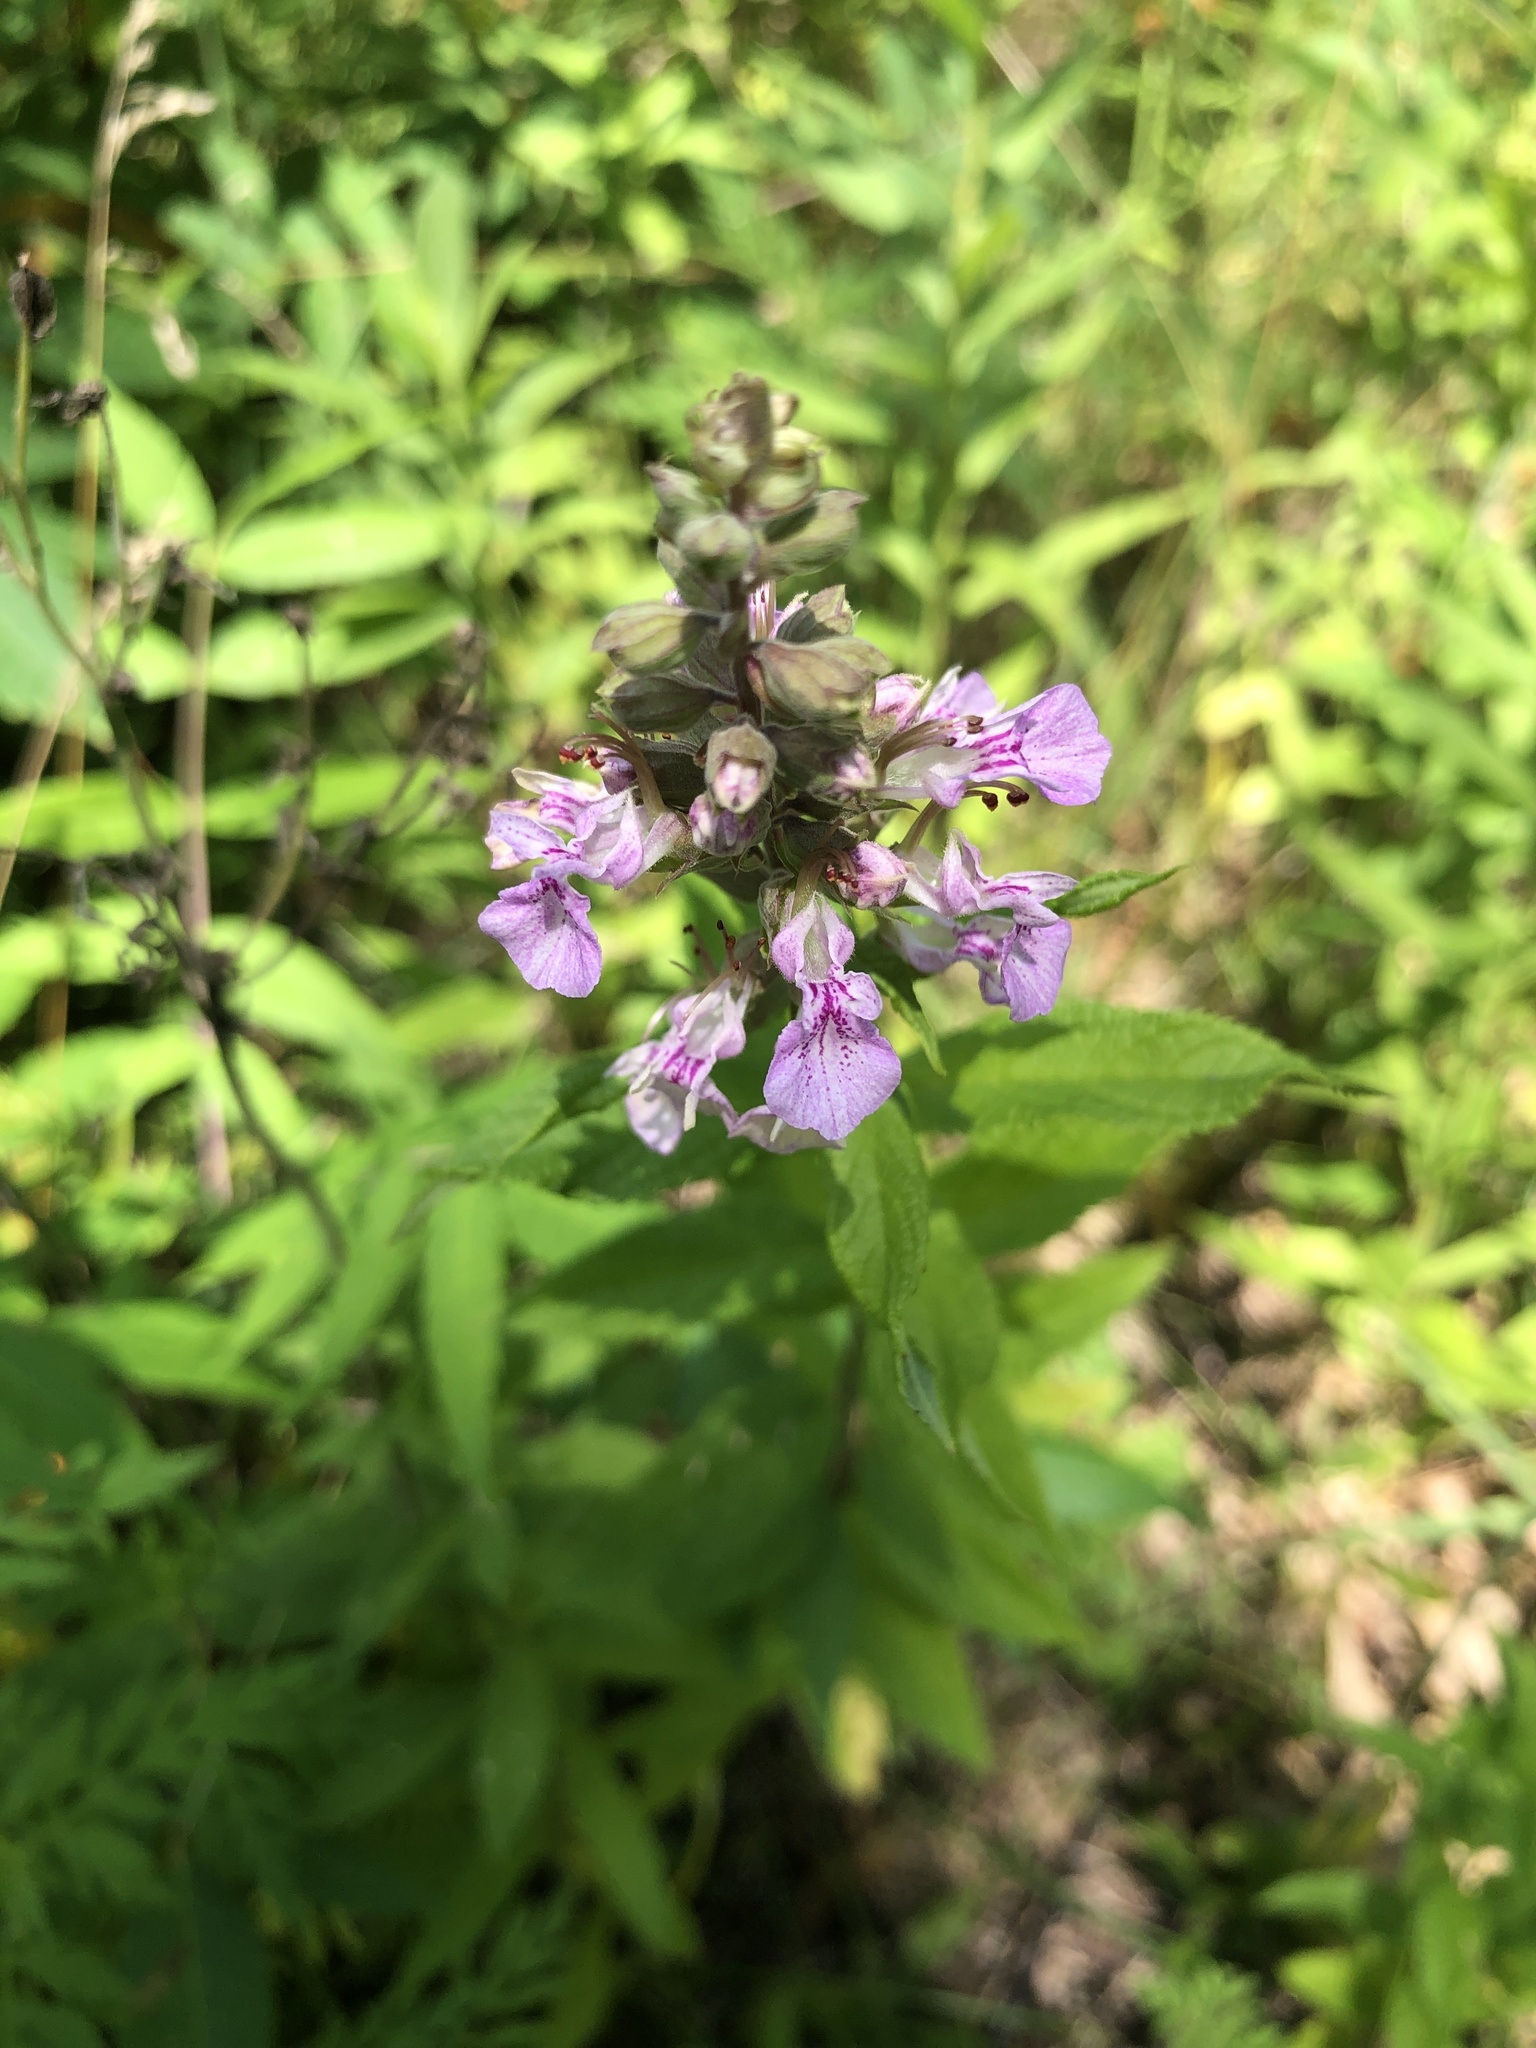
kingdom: Plantae
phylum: Tracheophyta
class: Magnoliopsida
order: Lamiales
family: Lamiaceae
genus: Teucrium
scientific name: Teucrium canadense
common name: American germander
